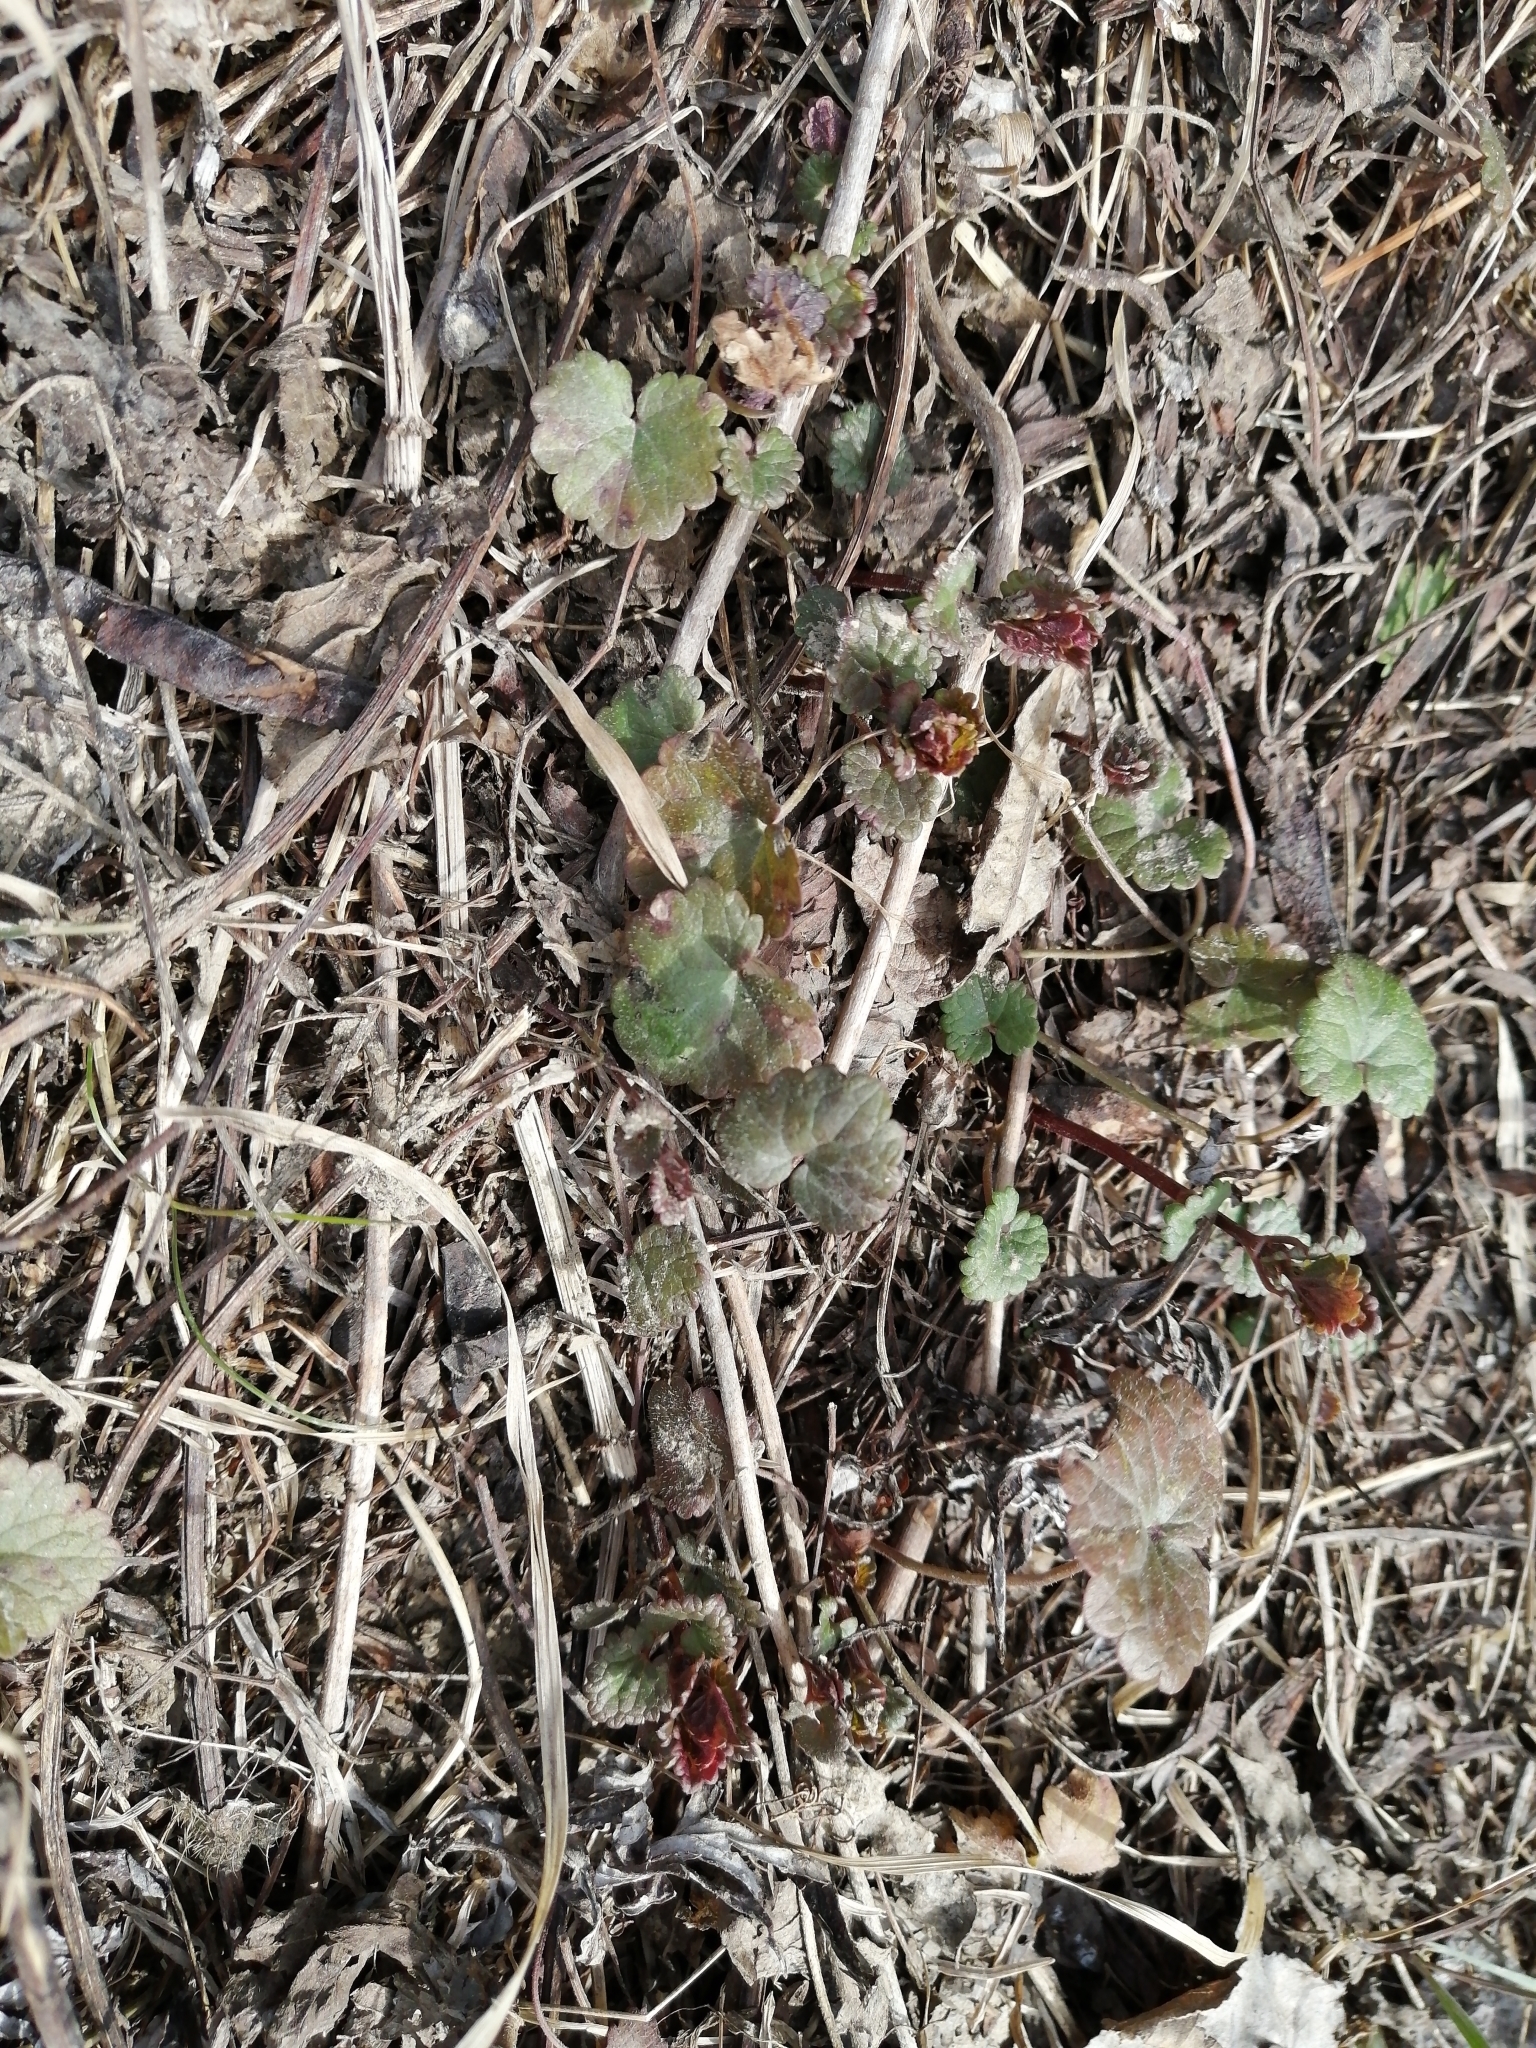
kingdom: Plantae
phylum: Tracheophyta
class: Magnoliopsida
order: Lamiales
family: Lamiaceae
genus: Glechoma
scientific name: Glechoma hederacea
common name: Ground ivy
